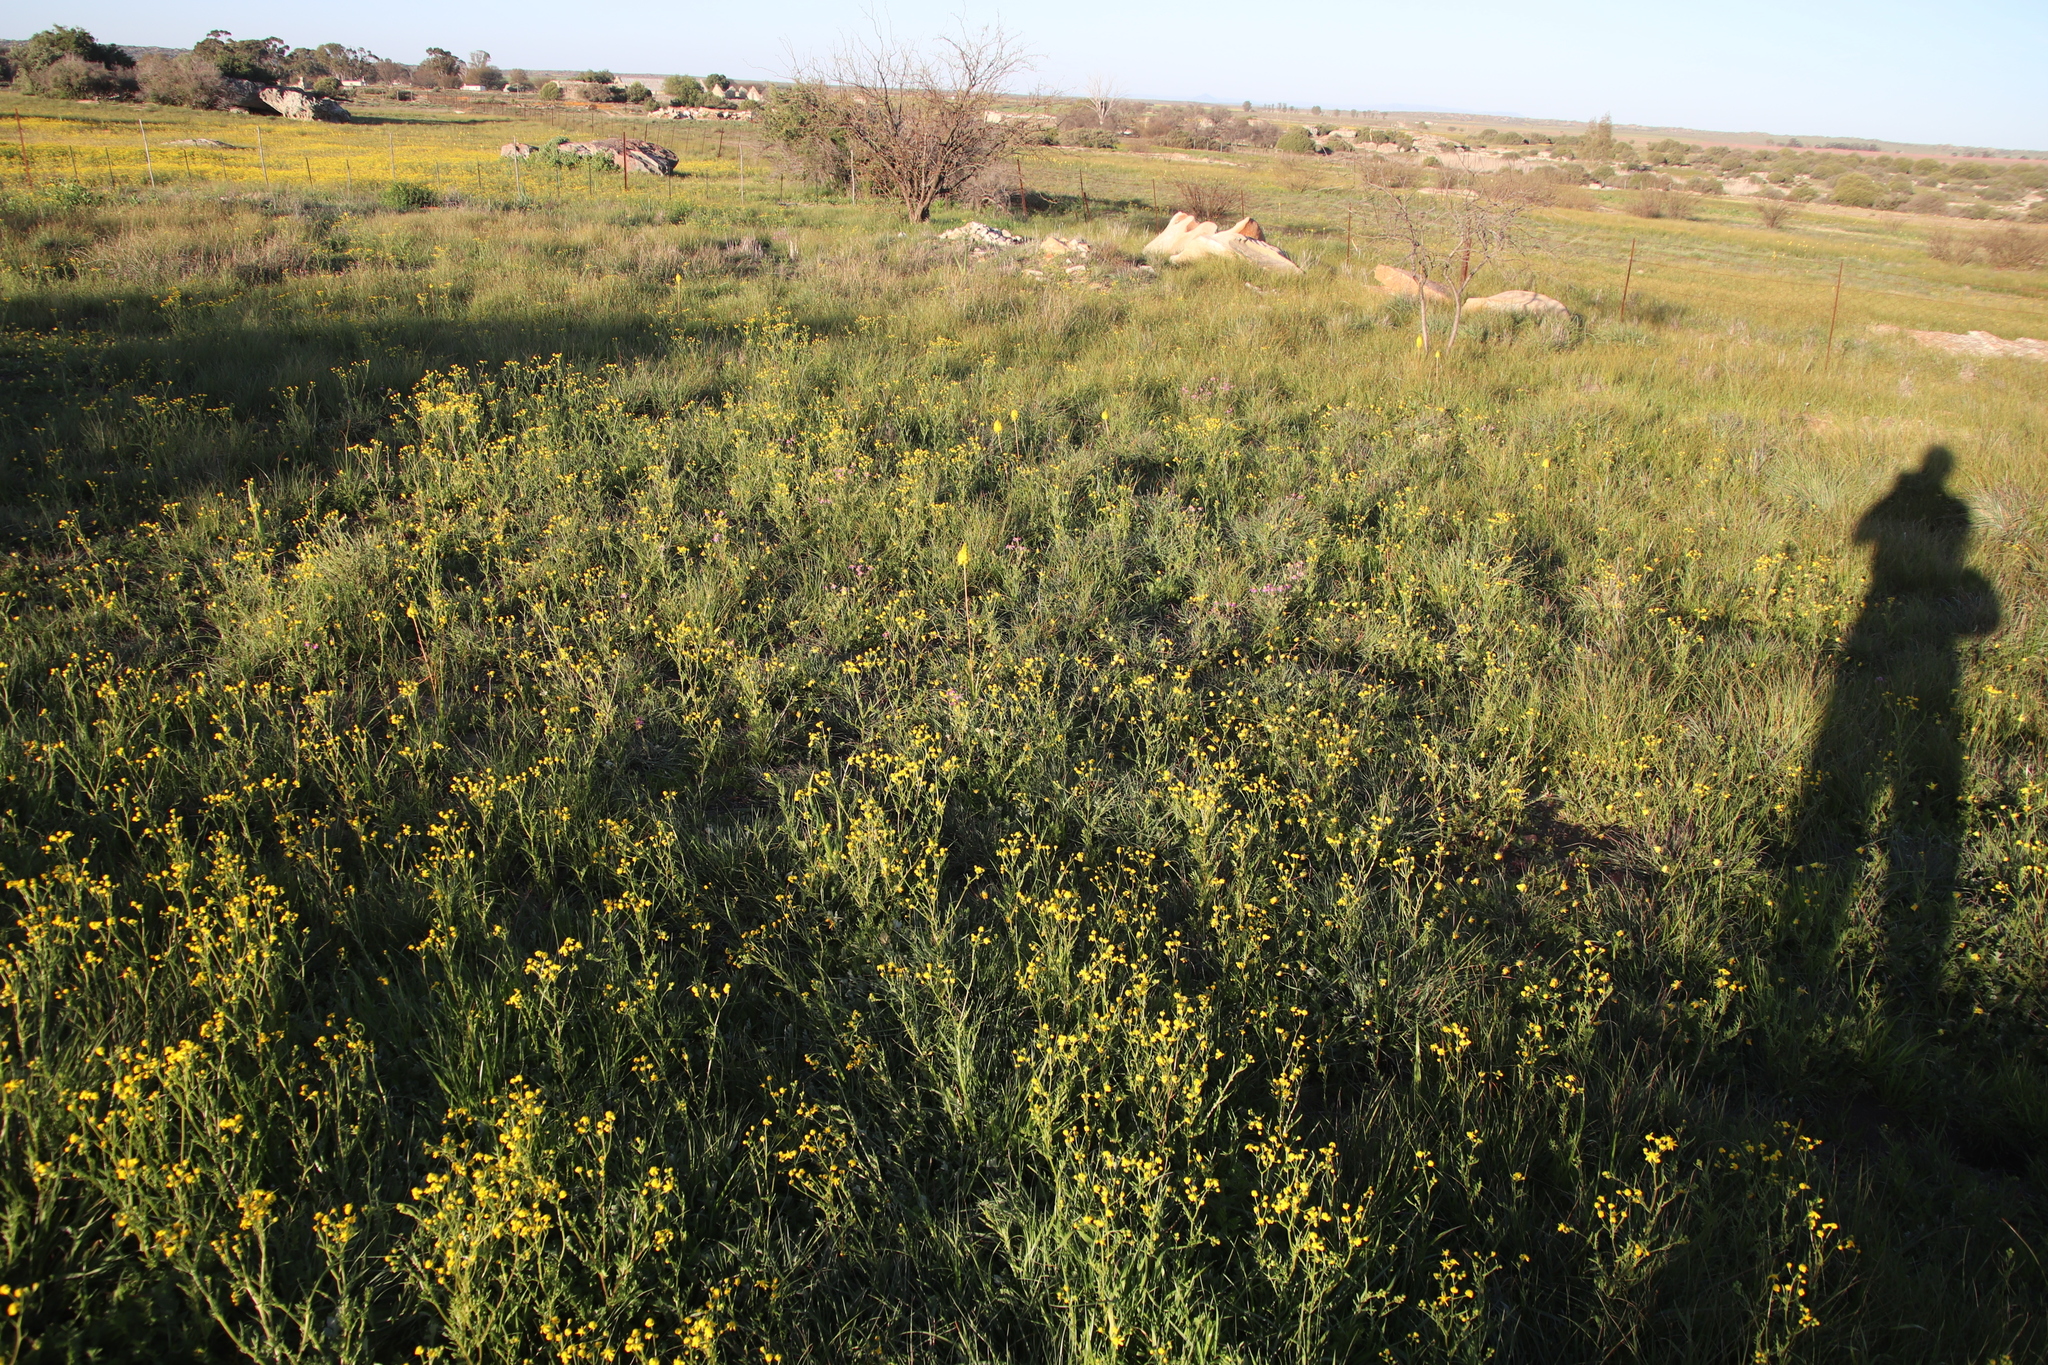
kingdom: Plantae
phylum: Tracheophyta
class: Magnoliopsida
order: Asterales
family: Asteraceae
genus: Senecio
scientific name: Senecio abruptus
